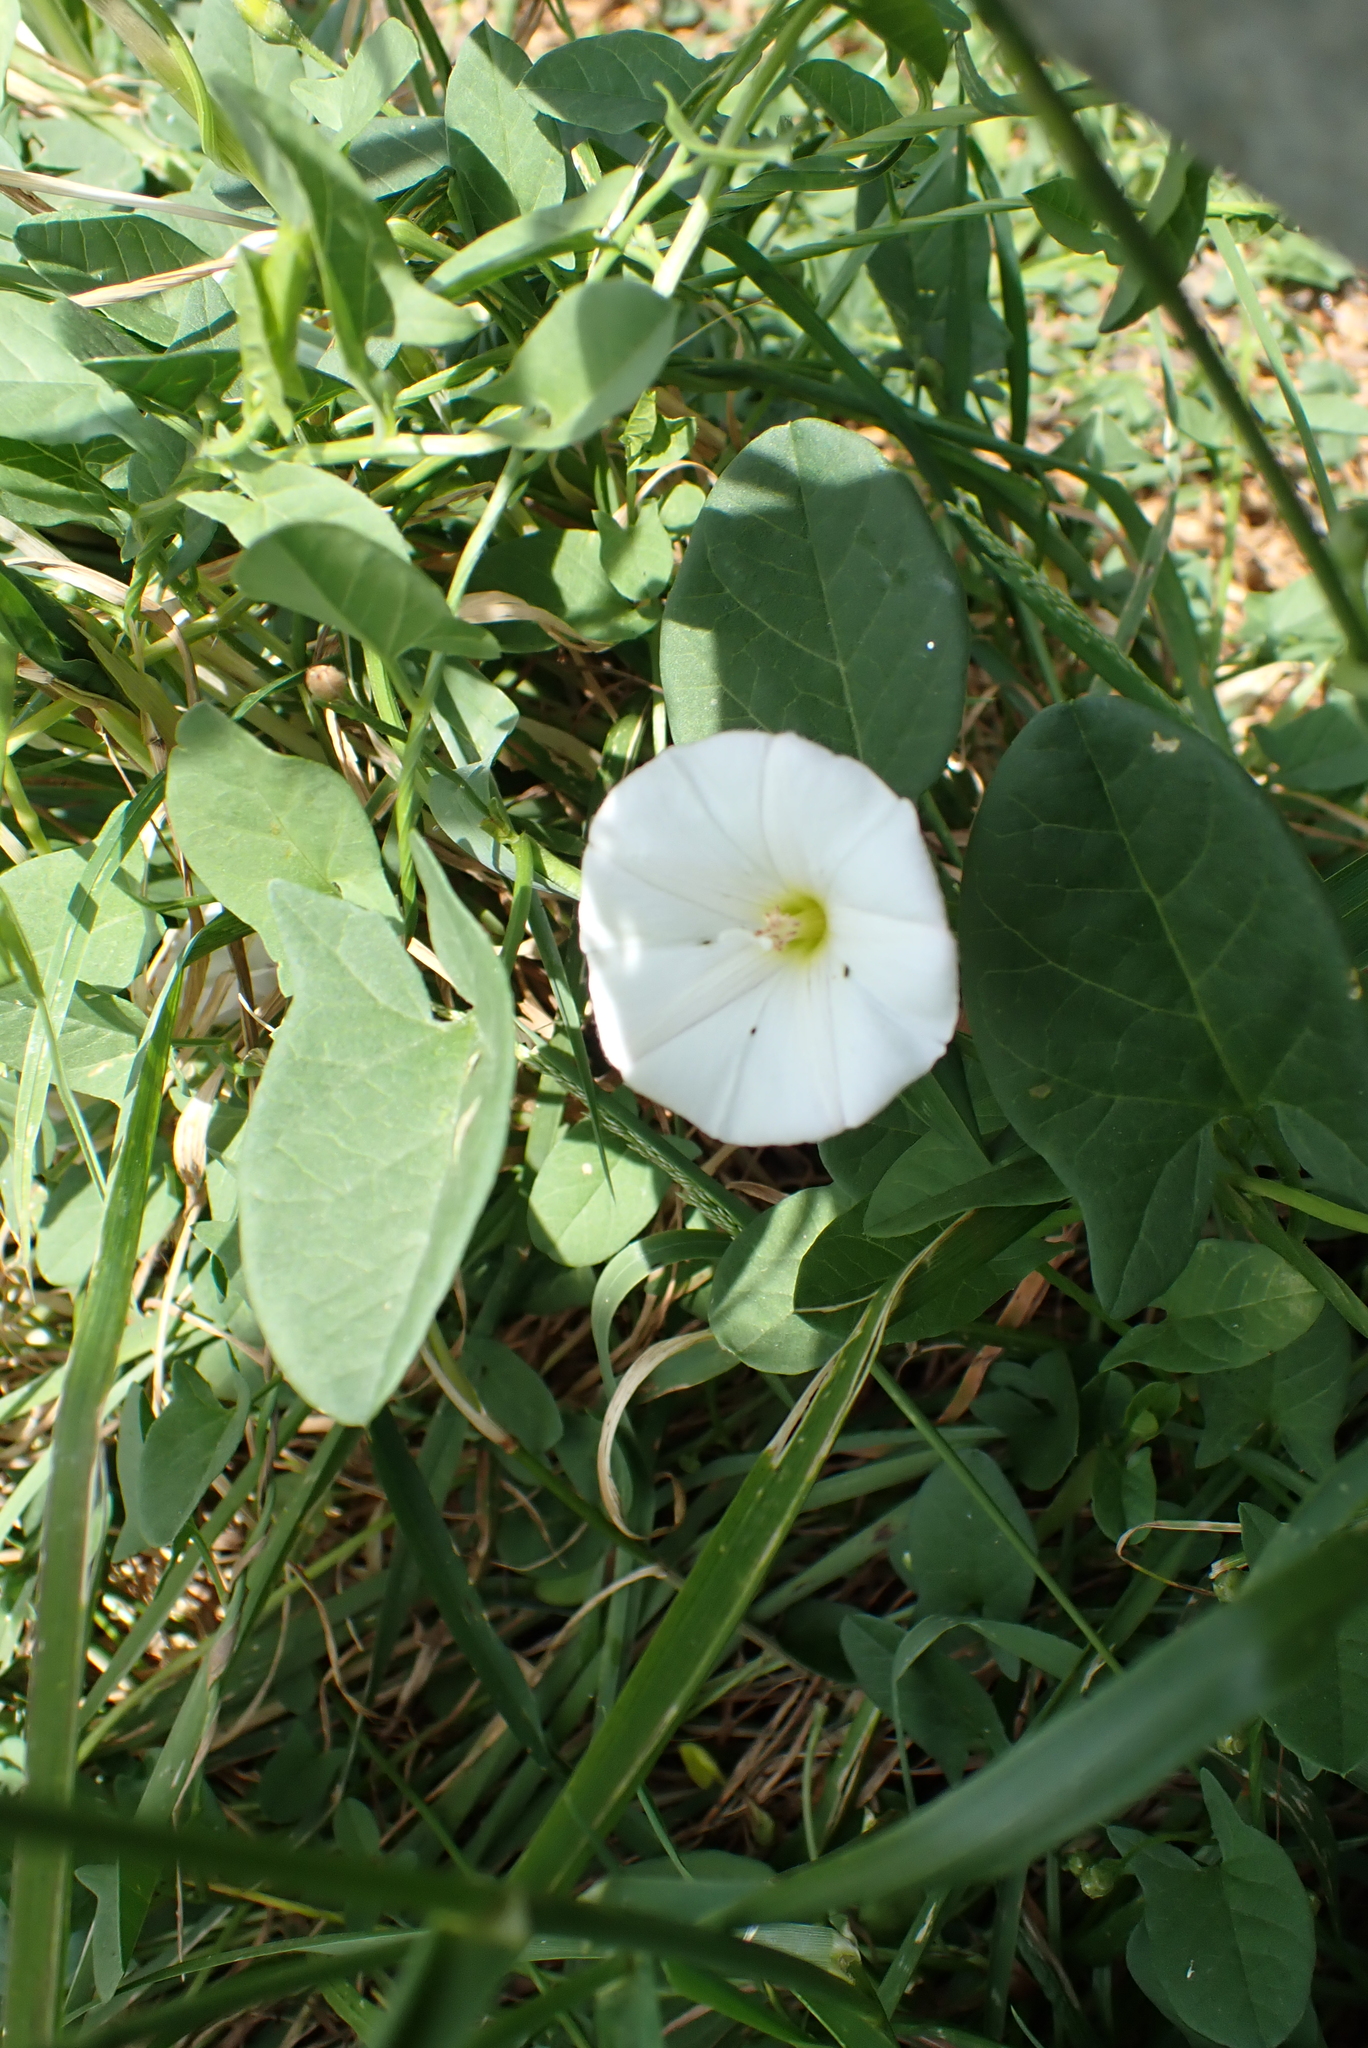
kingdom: Plantae
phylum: Tracheophyta
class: Magnoliopsida
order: Solanales
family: Convolvulaceae
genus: Convolvulus
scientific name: Convolvulus arvensis
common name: Field bindweed
